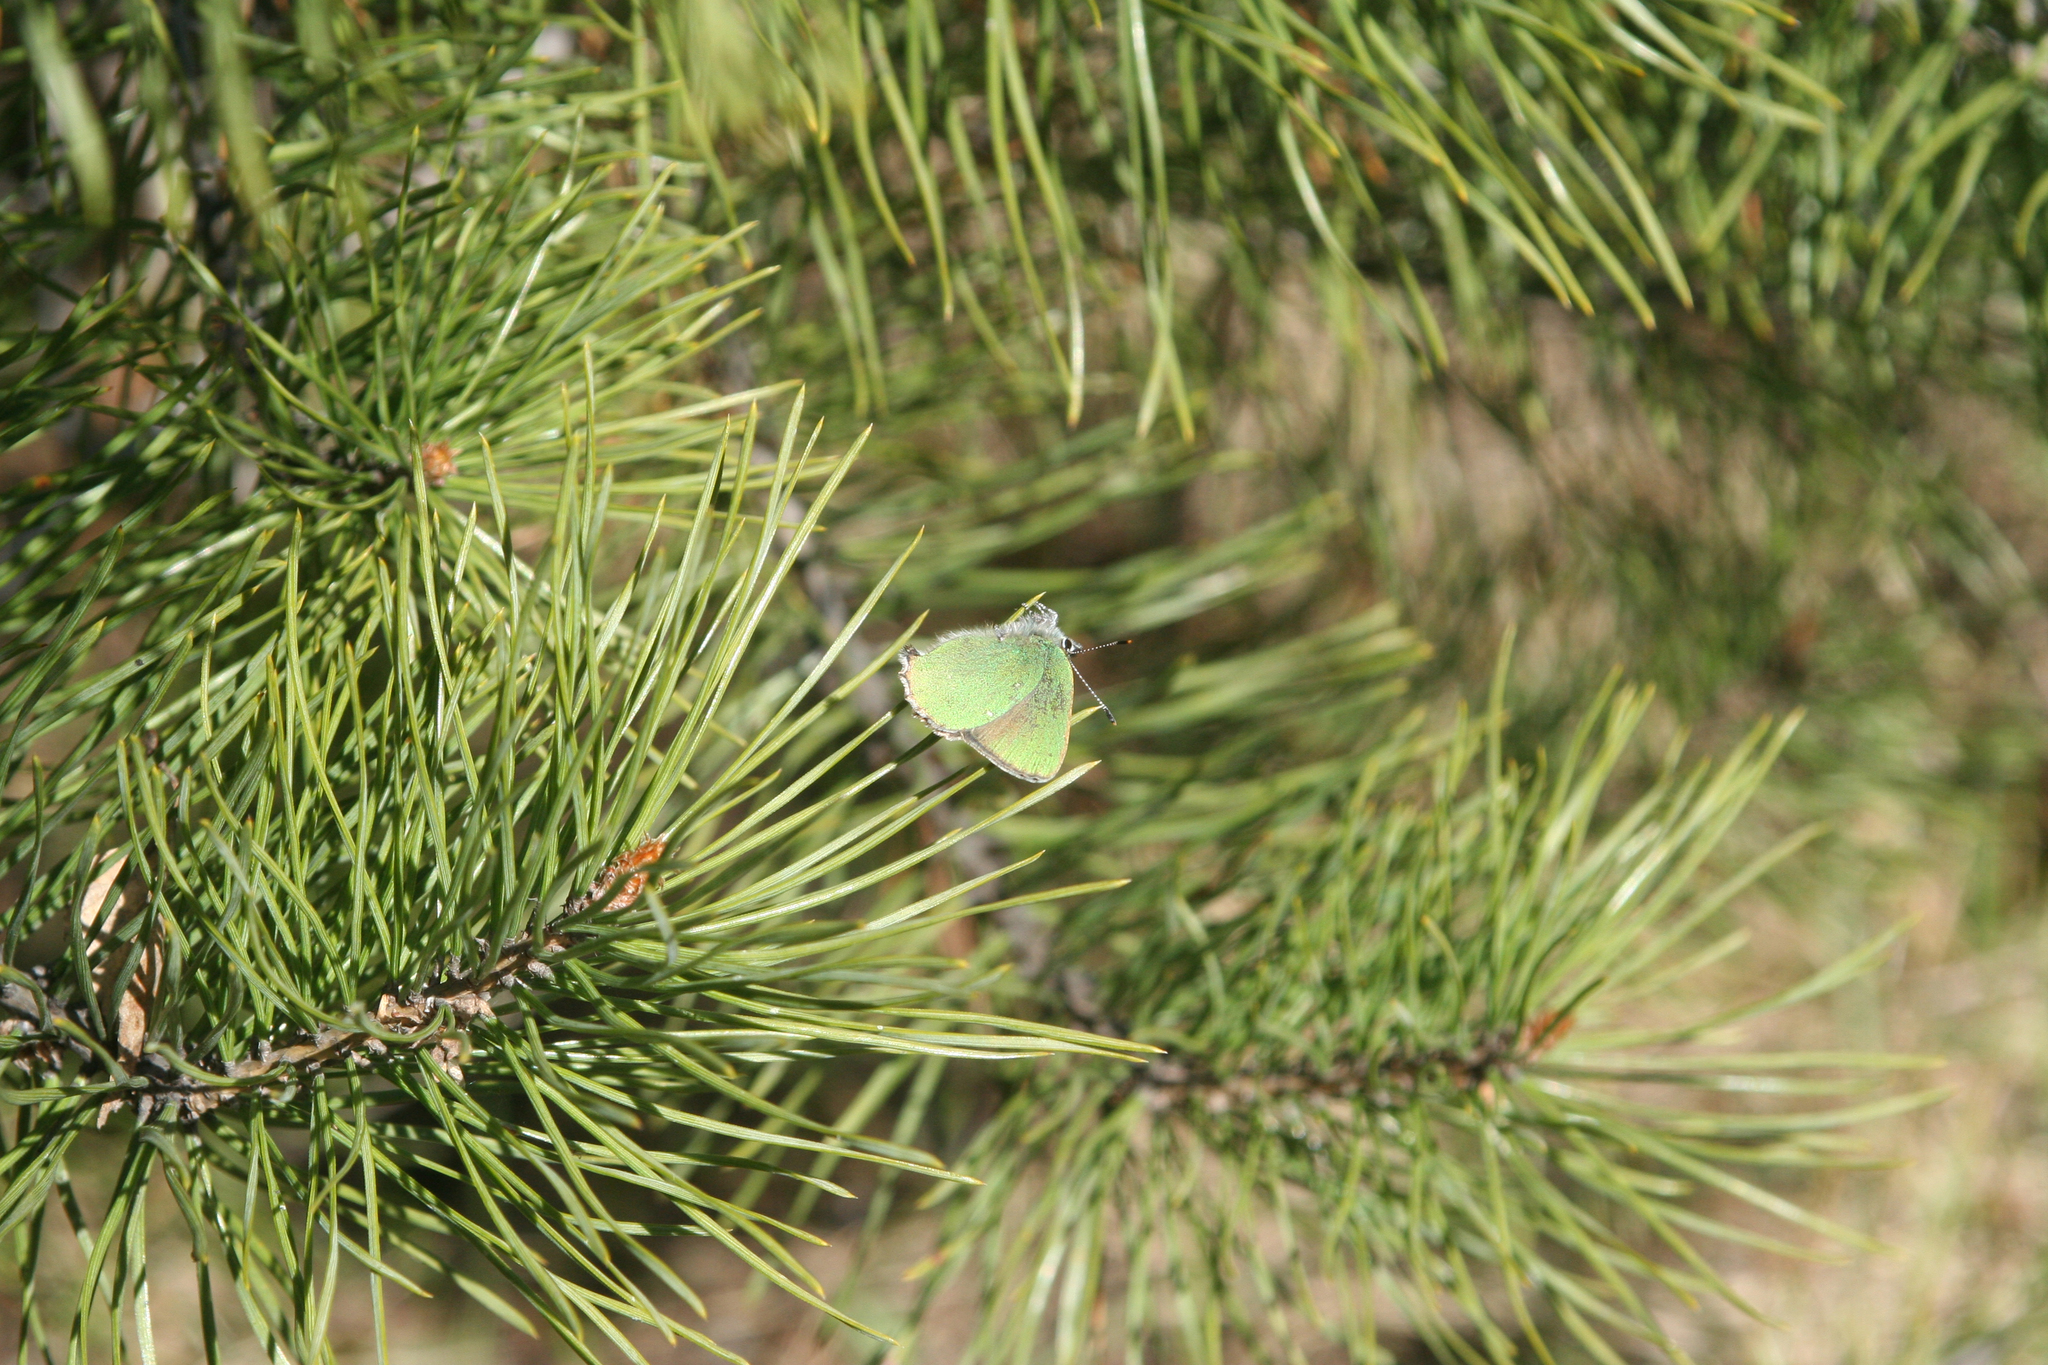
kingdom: Animalia
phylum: Arthropoda
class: Insecta
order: Lepidoptera
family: Lycaenidae
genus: Callophrys
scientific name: Callophrys rubi
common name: Green hairstreak
